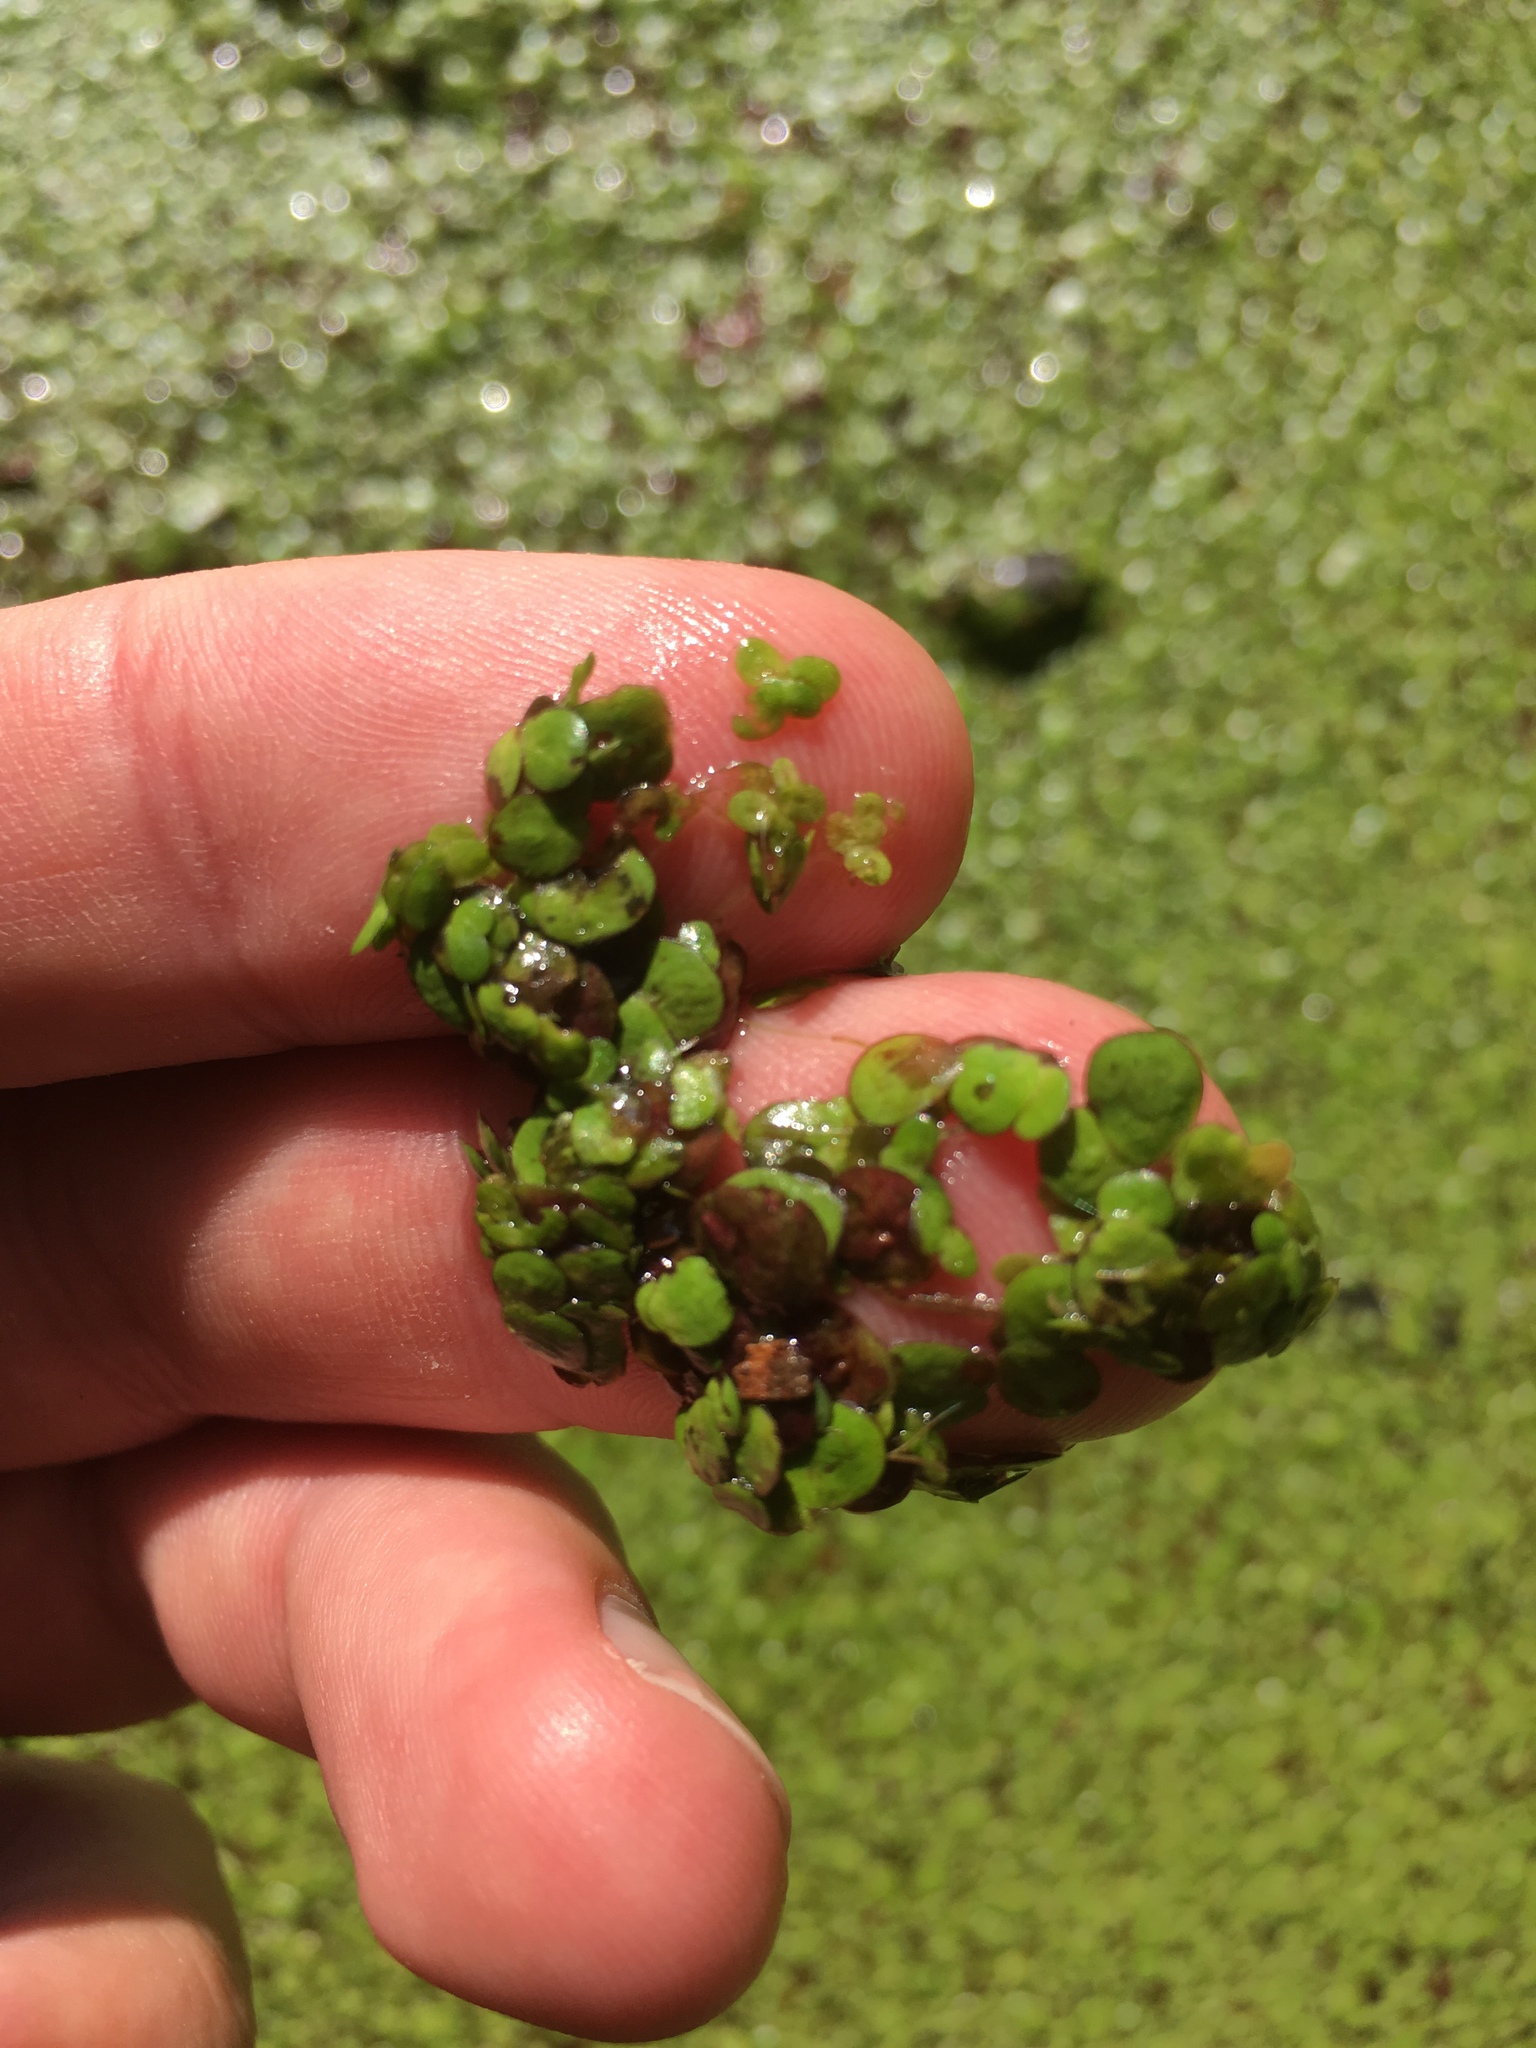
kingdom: Plantae
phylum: Tracheophyta
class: Liliopsida
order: Alismatales
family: Araceae
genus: Spirodela
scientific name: Spirodela polyrhiza
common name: Great duckweed
